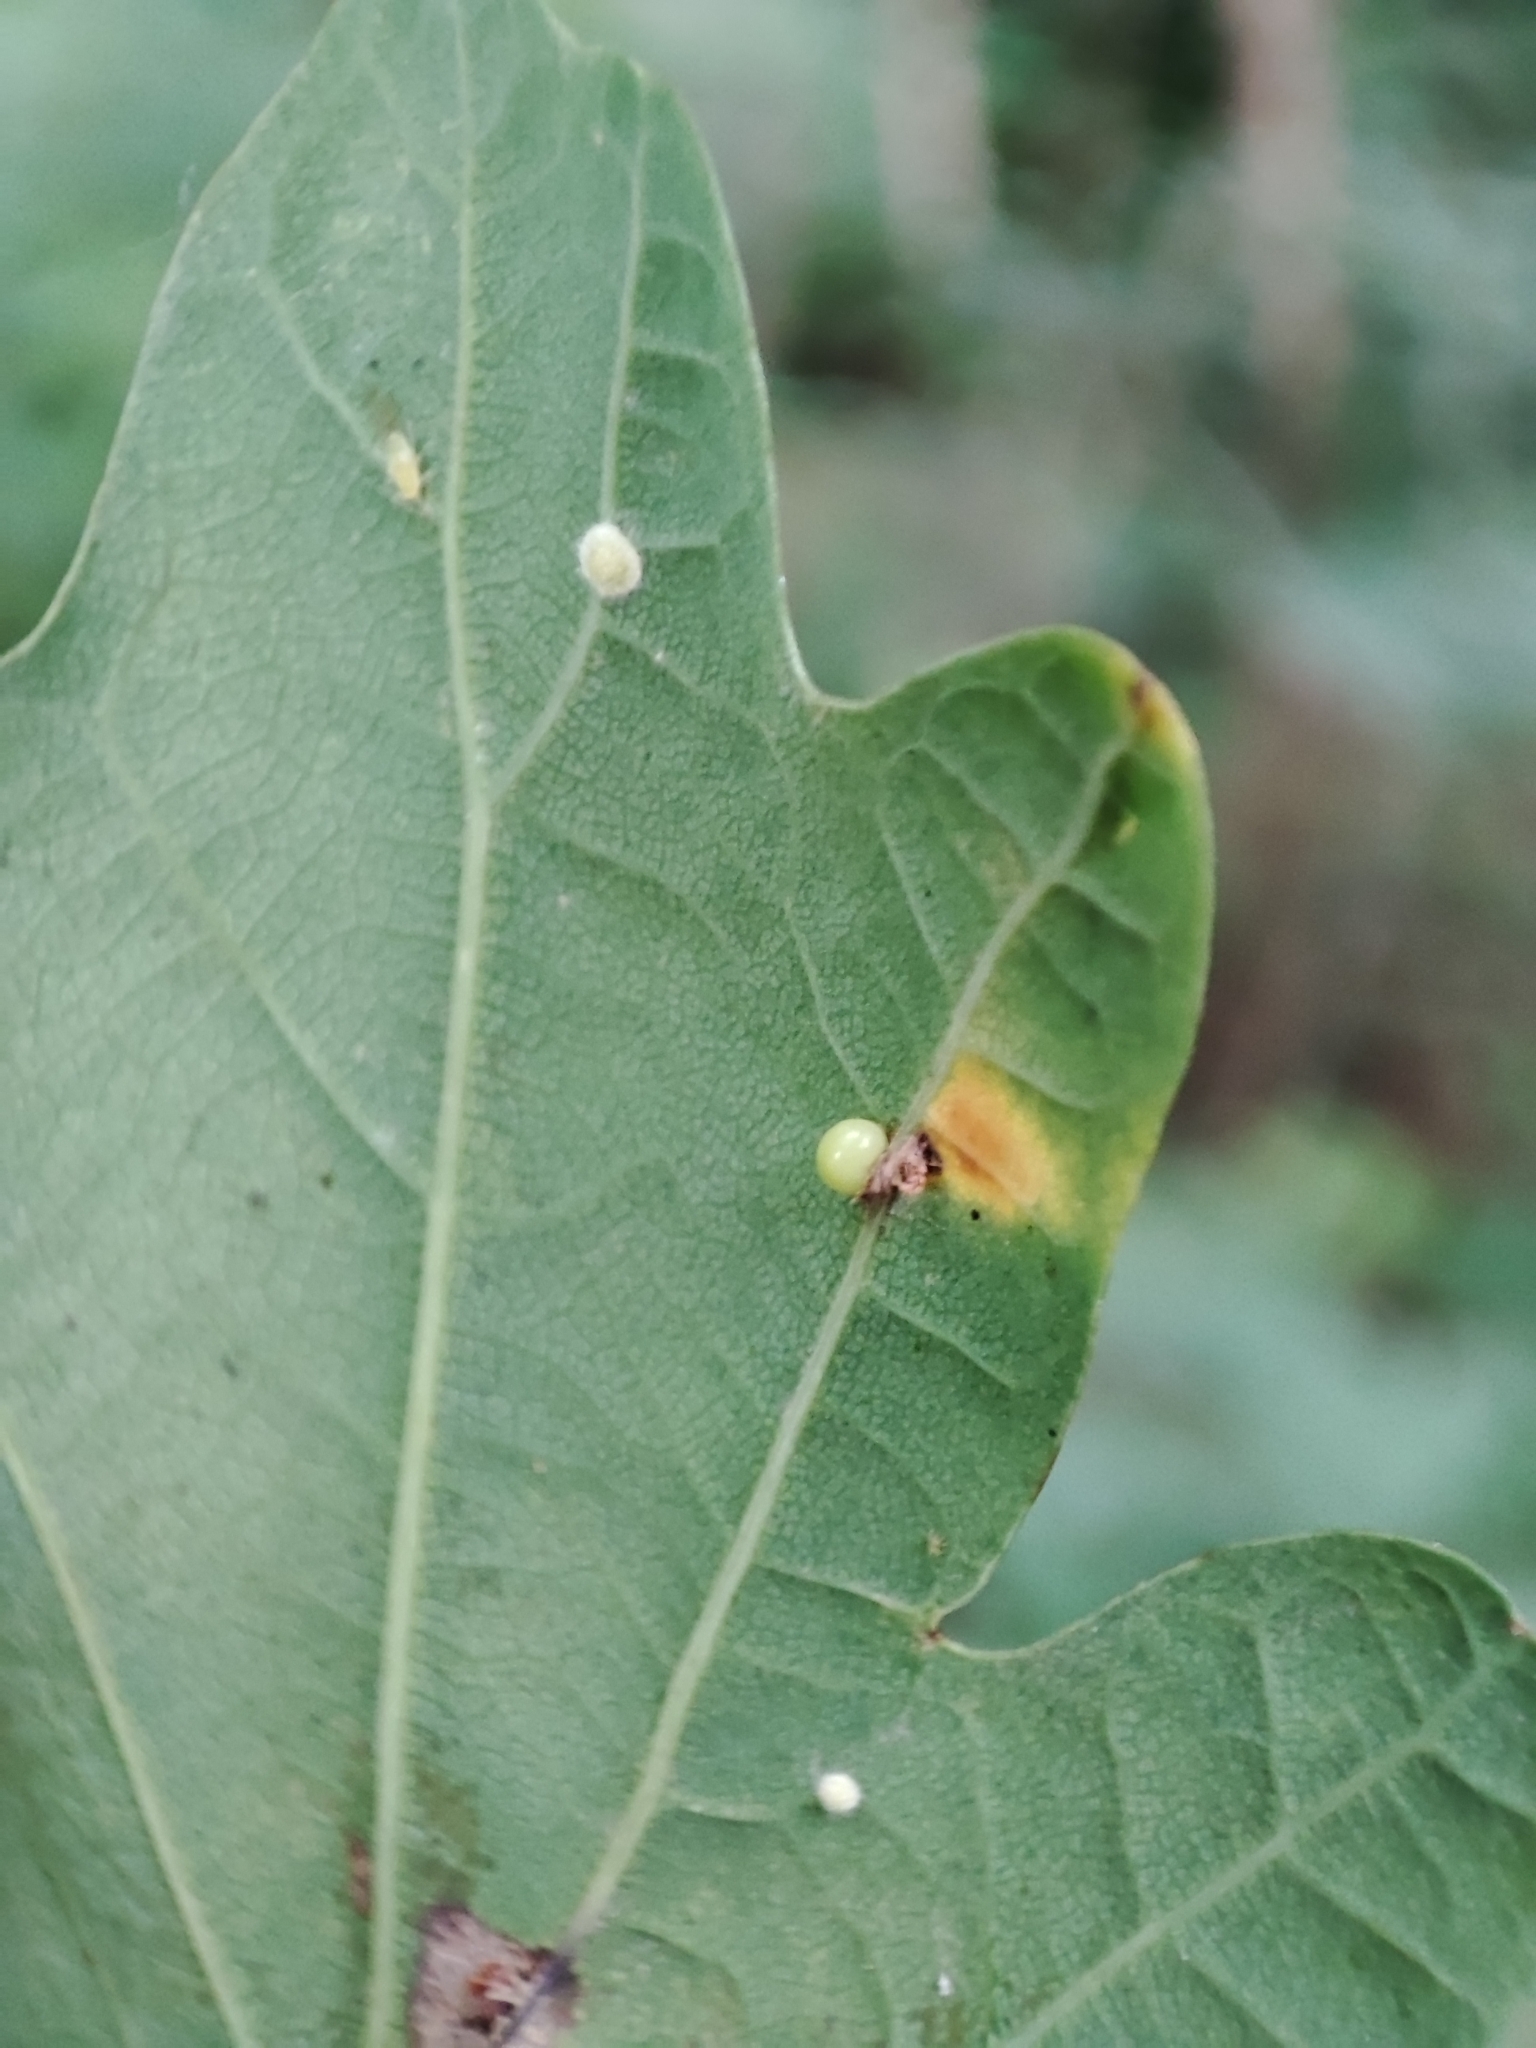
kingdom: Animalia
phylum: Arthropoda
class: Insecta
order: Hymenoptera
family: Cynipidae
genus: Neuroterus
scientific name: Neuroterus anthracinus
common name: Oyster gall
